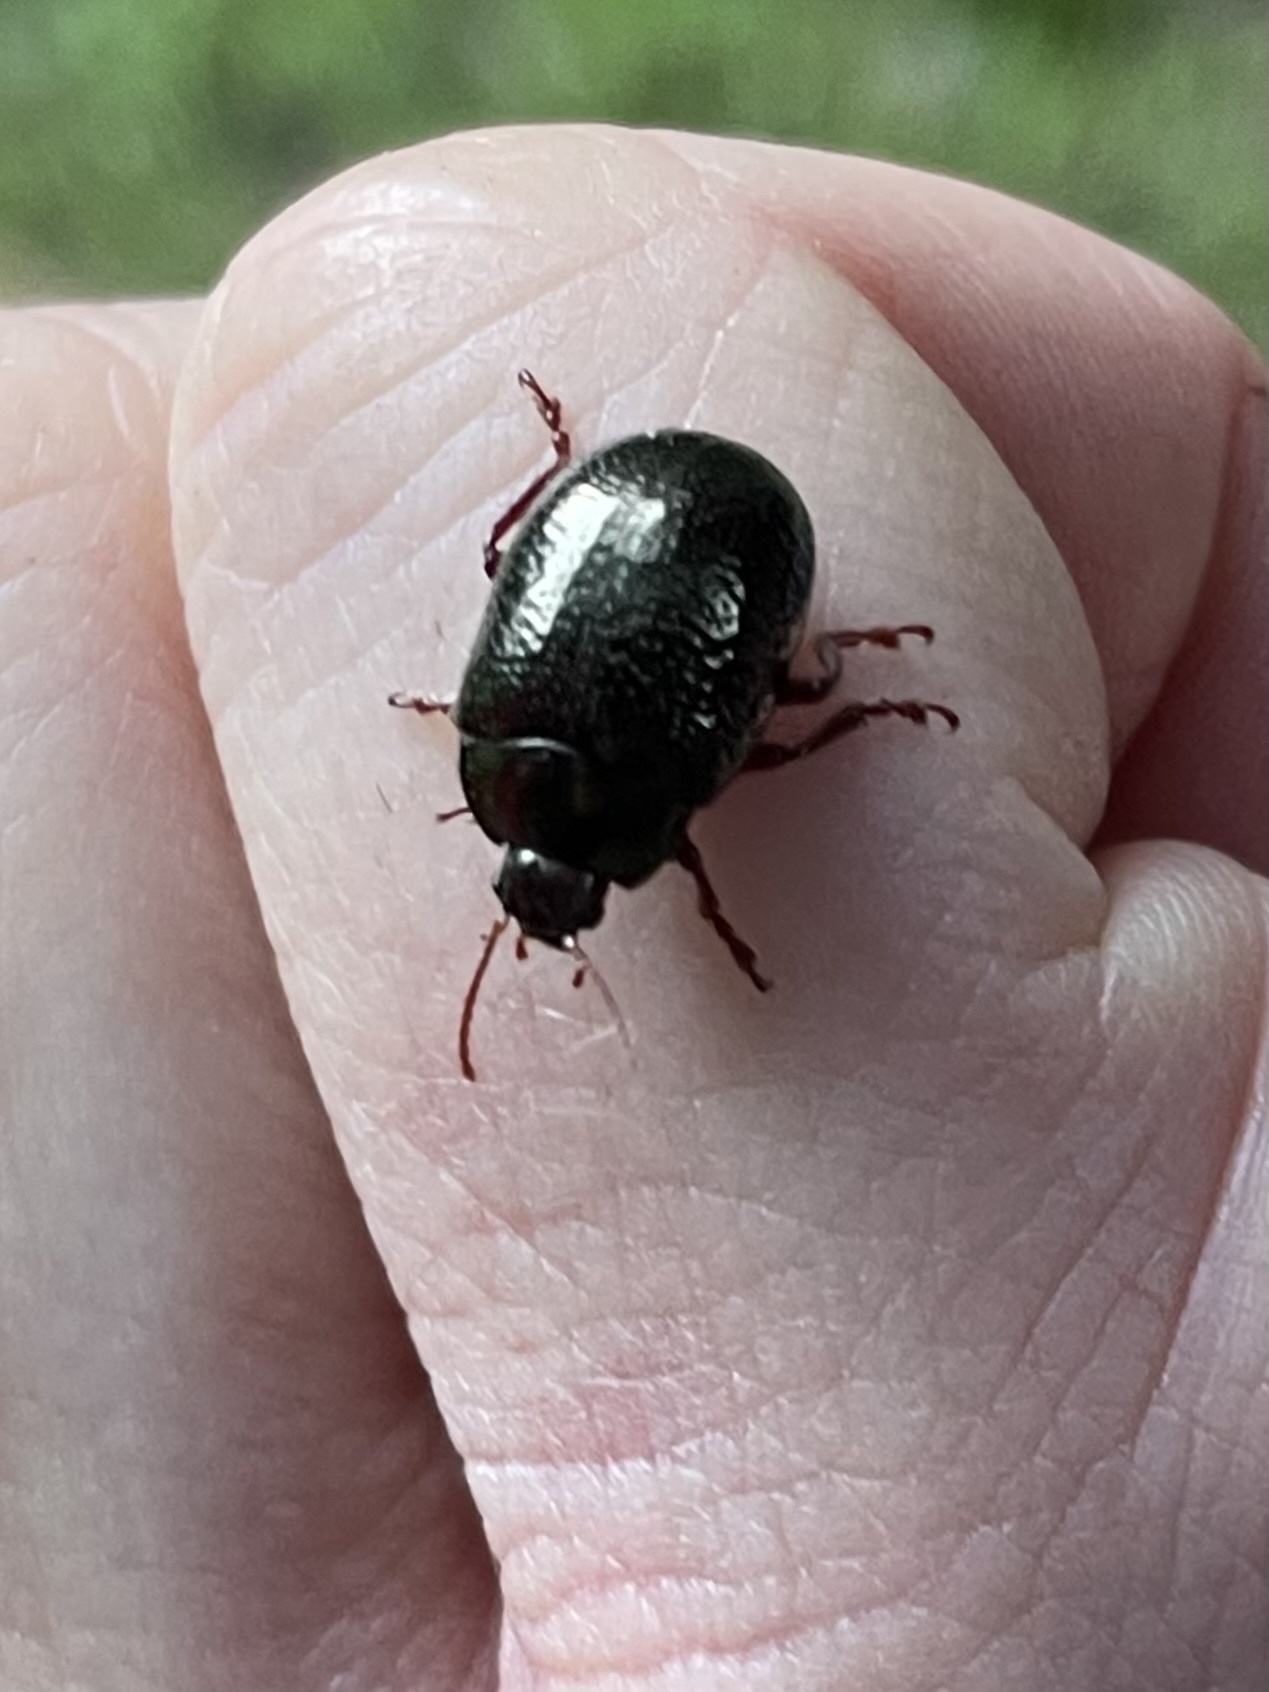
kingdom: Animalia
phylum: Arthropoda
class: Insecta
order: Coleoptera
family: Chrysomelidae
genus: Chrysolina
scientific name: Chrysolina bankii
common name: Leaf beetle
